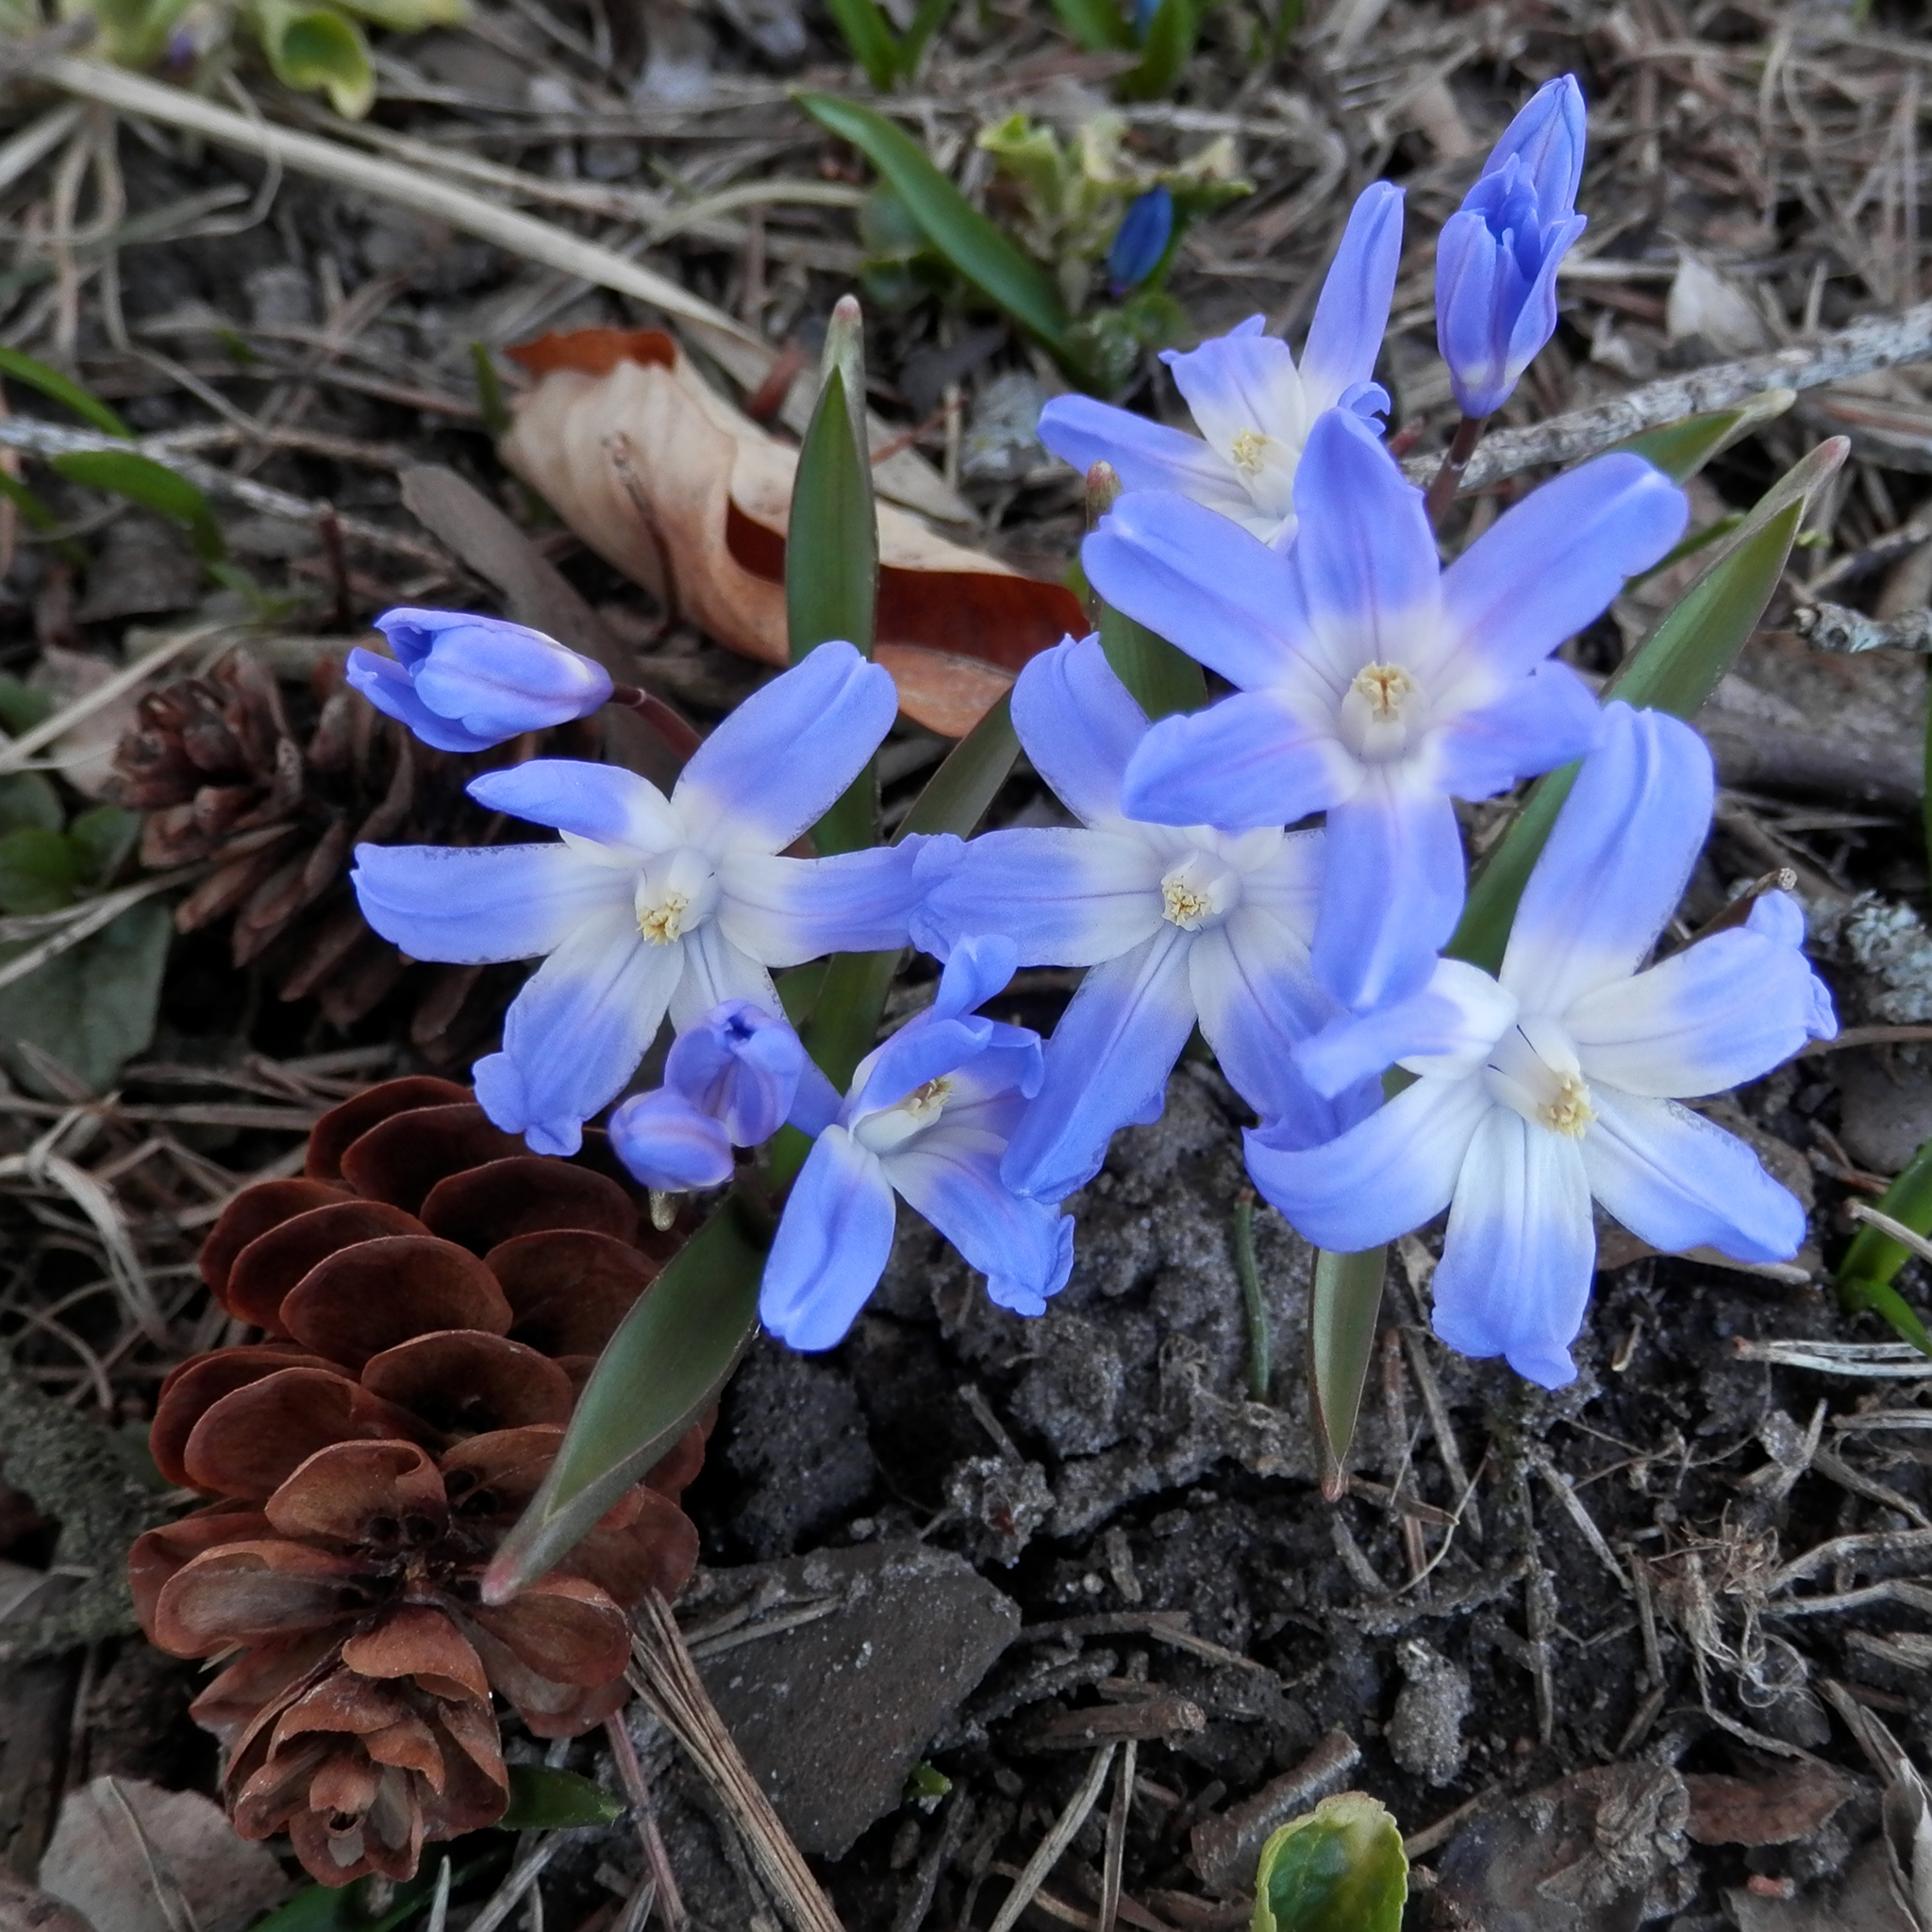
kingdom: Plantae
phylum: Tracheophyta
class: Liliopsida
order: Asparagales
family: Asparagaceae
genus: Scilla
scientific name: Scilla luciliae
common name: Boissier's glory-of-the-snow
